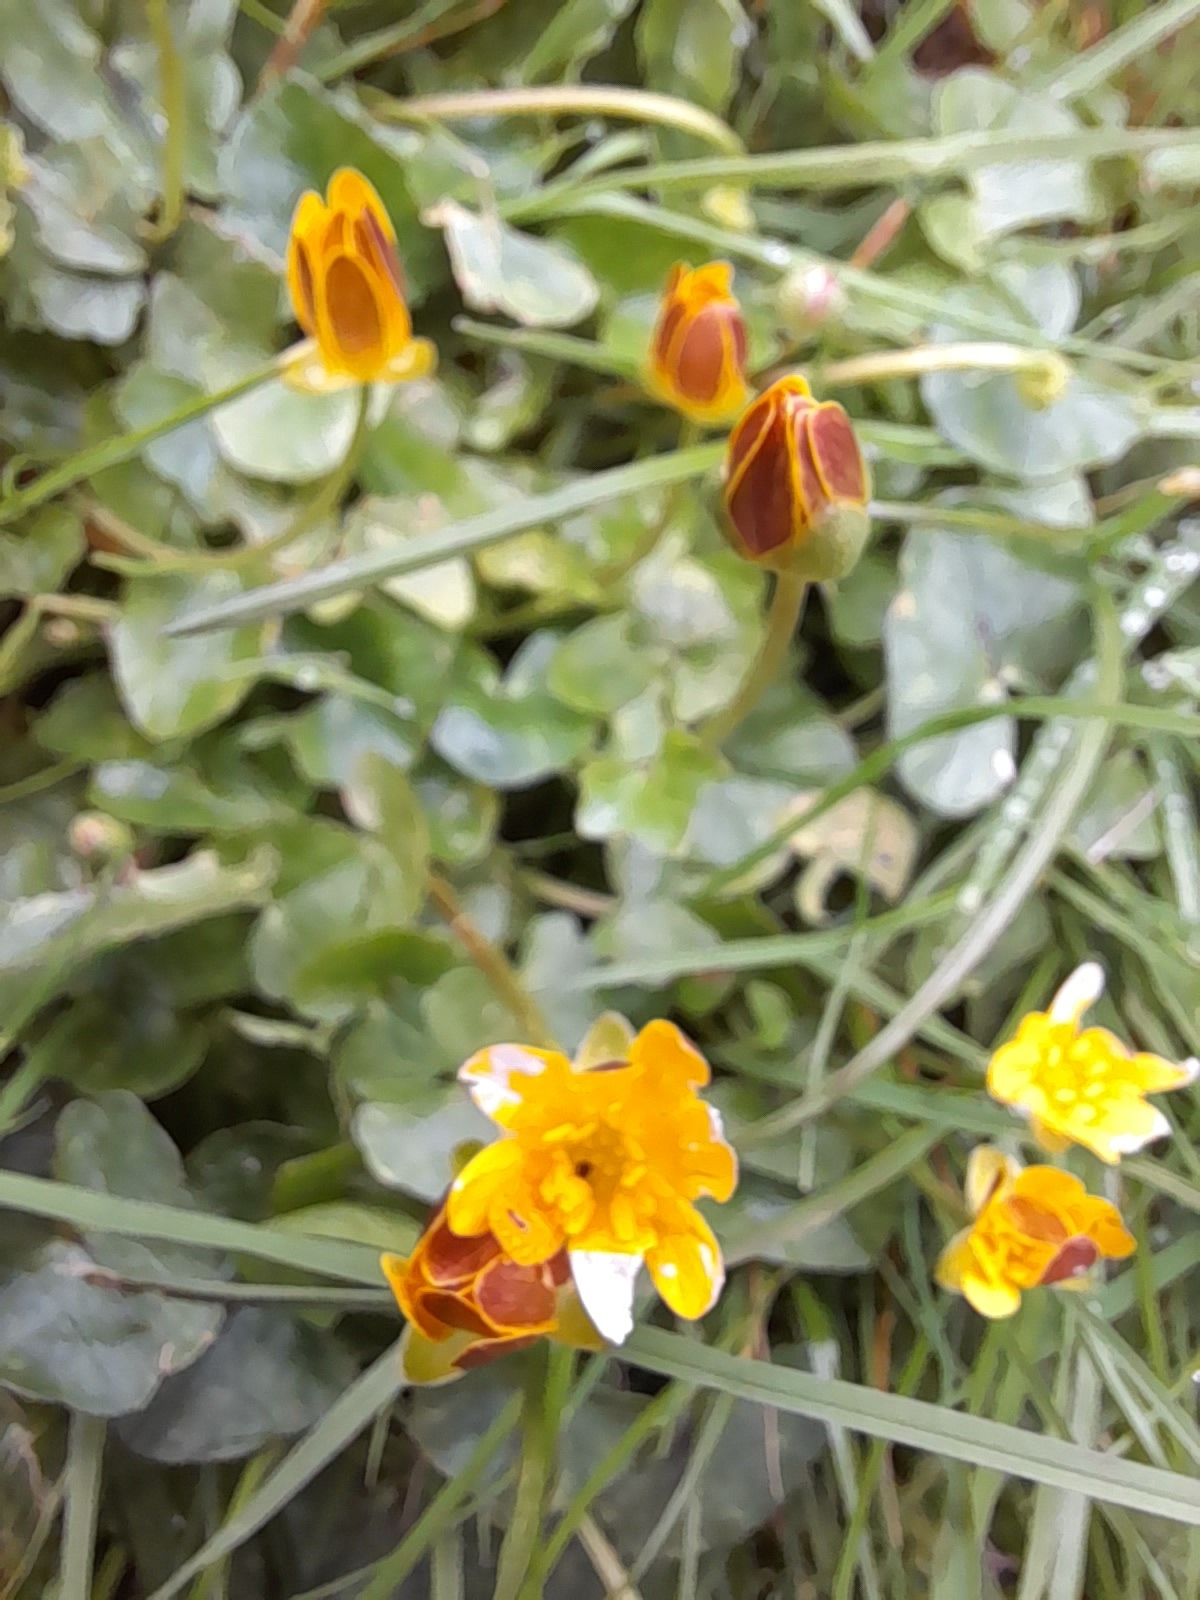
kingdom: Plantae
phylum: Tracheophyta
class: Magnoliopsida
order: Ranunculales
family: Ranunculaceae
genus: Ficaria
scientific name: Ficaria verna
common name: Lesser celandine
